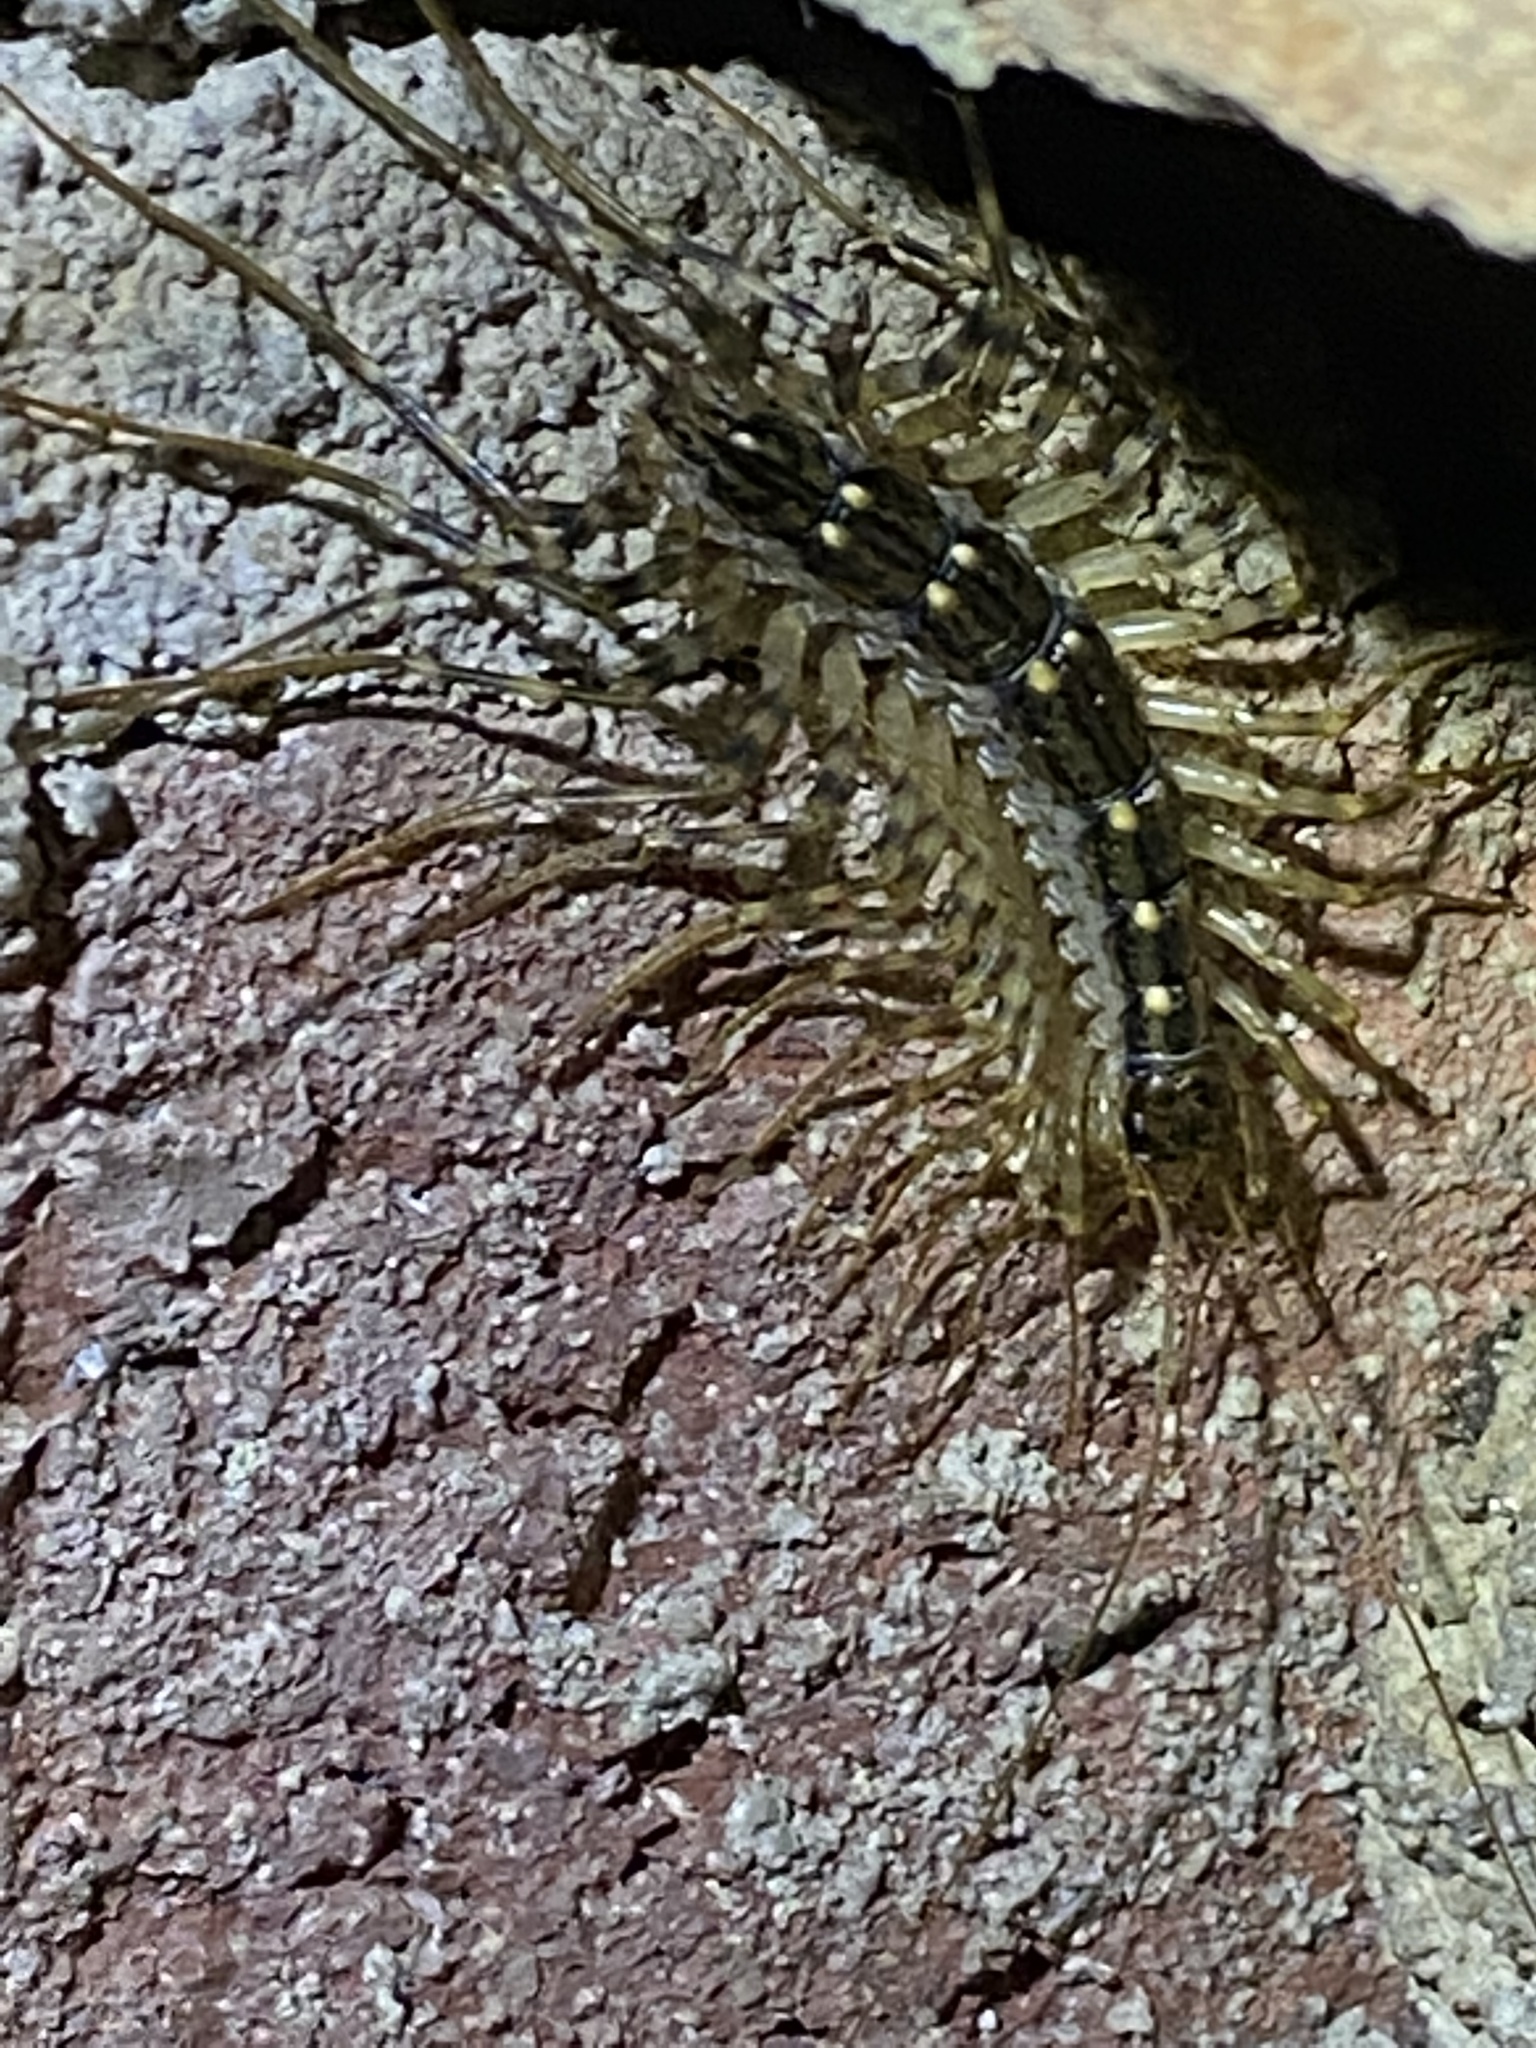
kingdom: Animalia
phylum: Arthropoda
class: Chilopoda
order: Scutigeromorpha
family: Scutigeridae
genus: Scutigera
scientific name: Scutigera coleoptrata
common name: House centipede
